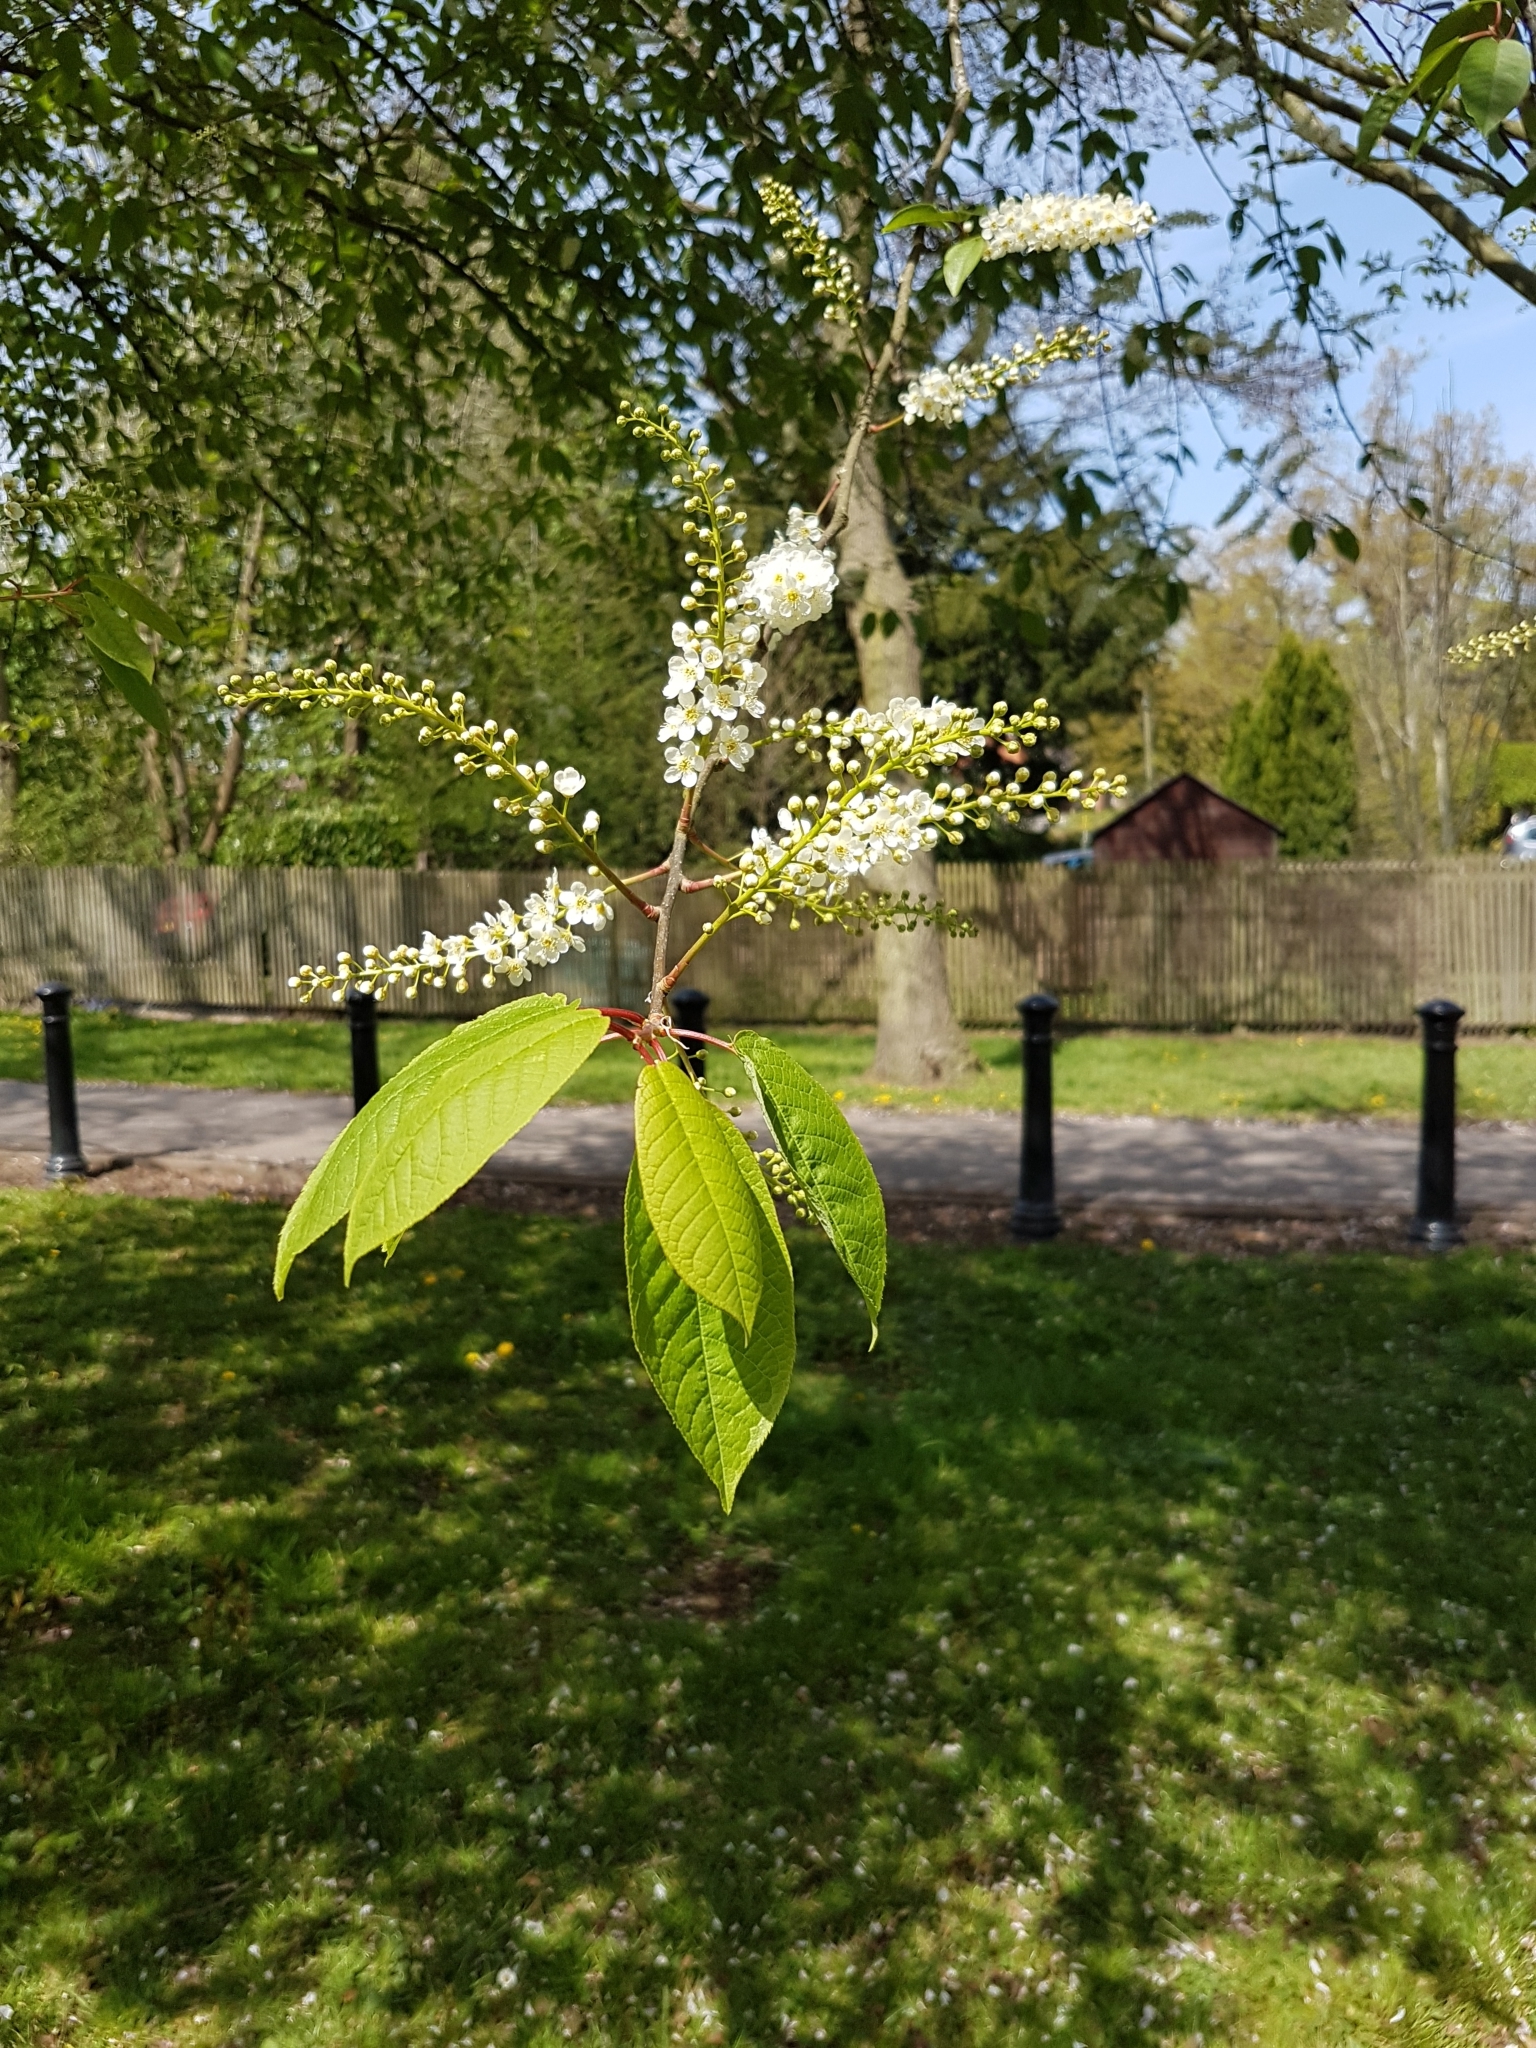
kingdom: Plantae
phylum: Tracheophyta
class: Magnoliopsida
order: Rosales
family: Rosaceae
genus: Prunus
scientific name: Prunus padus
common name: Bird cherry
